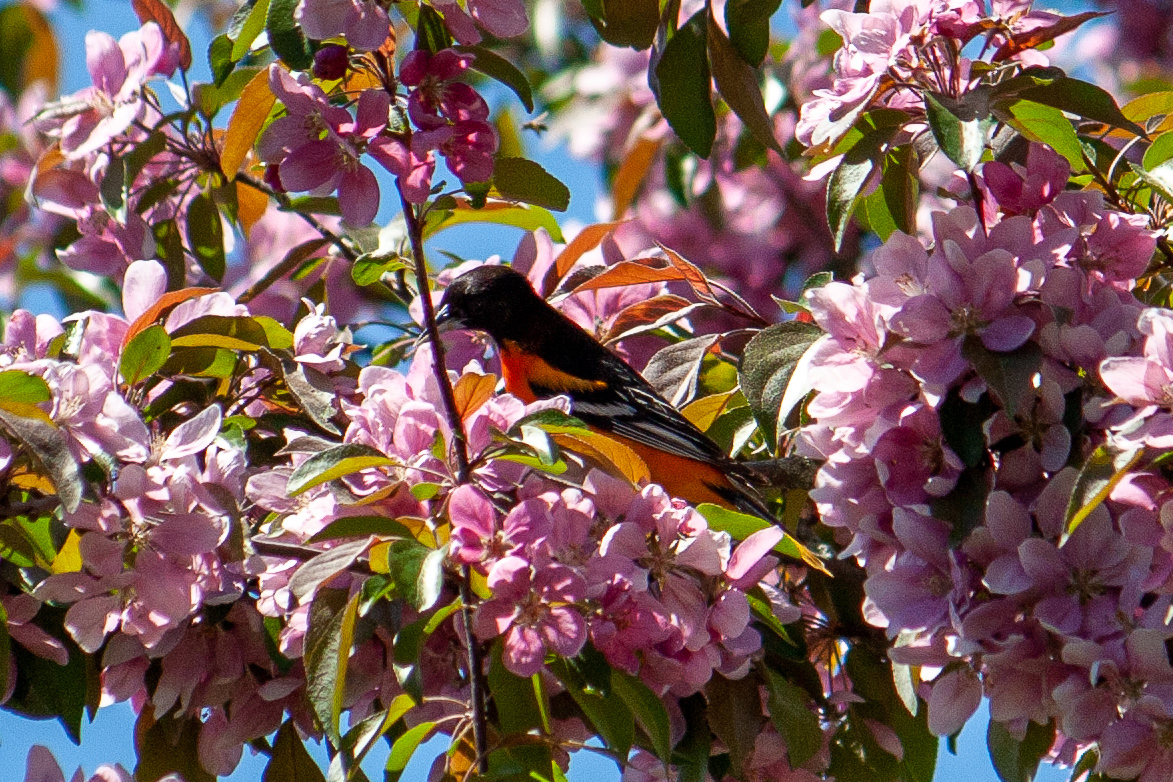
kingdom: Animalia
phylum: Chordata
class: Aves
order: Passeriformes
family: Icteridae
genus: Icterus
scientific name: Icterus galbula
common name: Baltimore oriole
